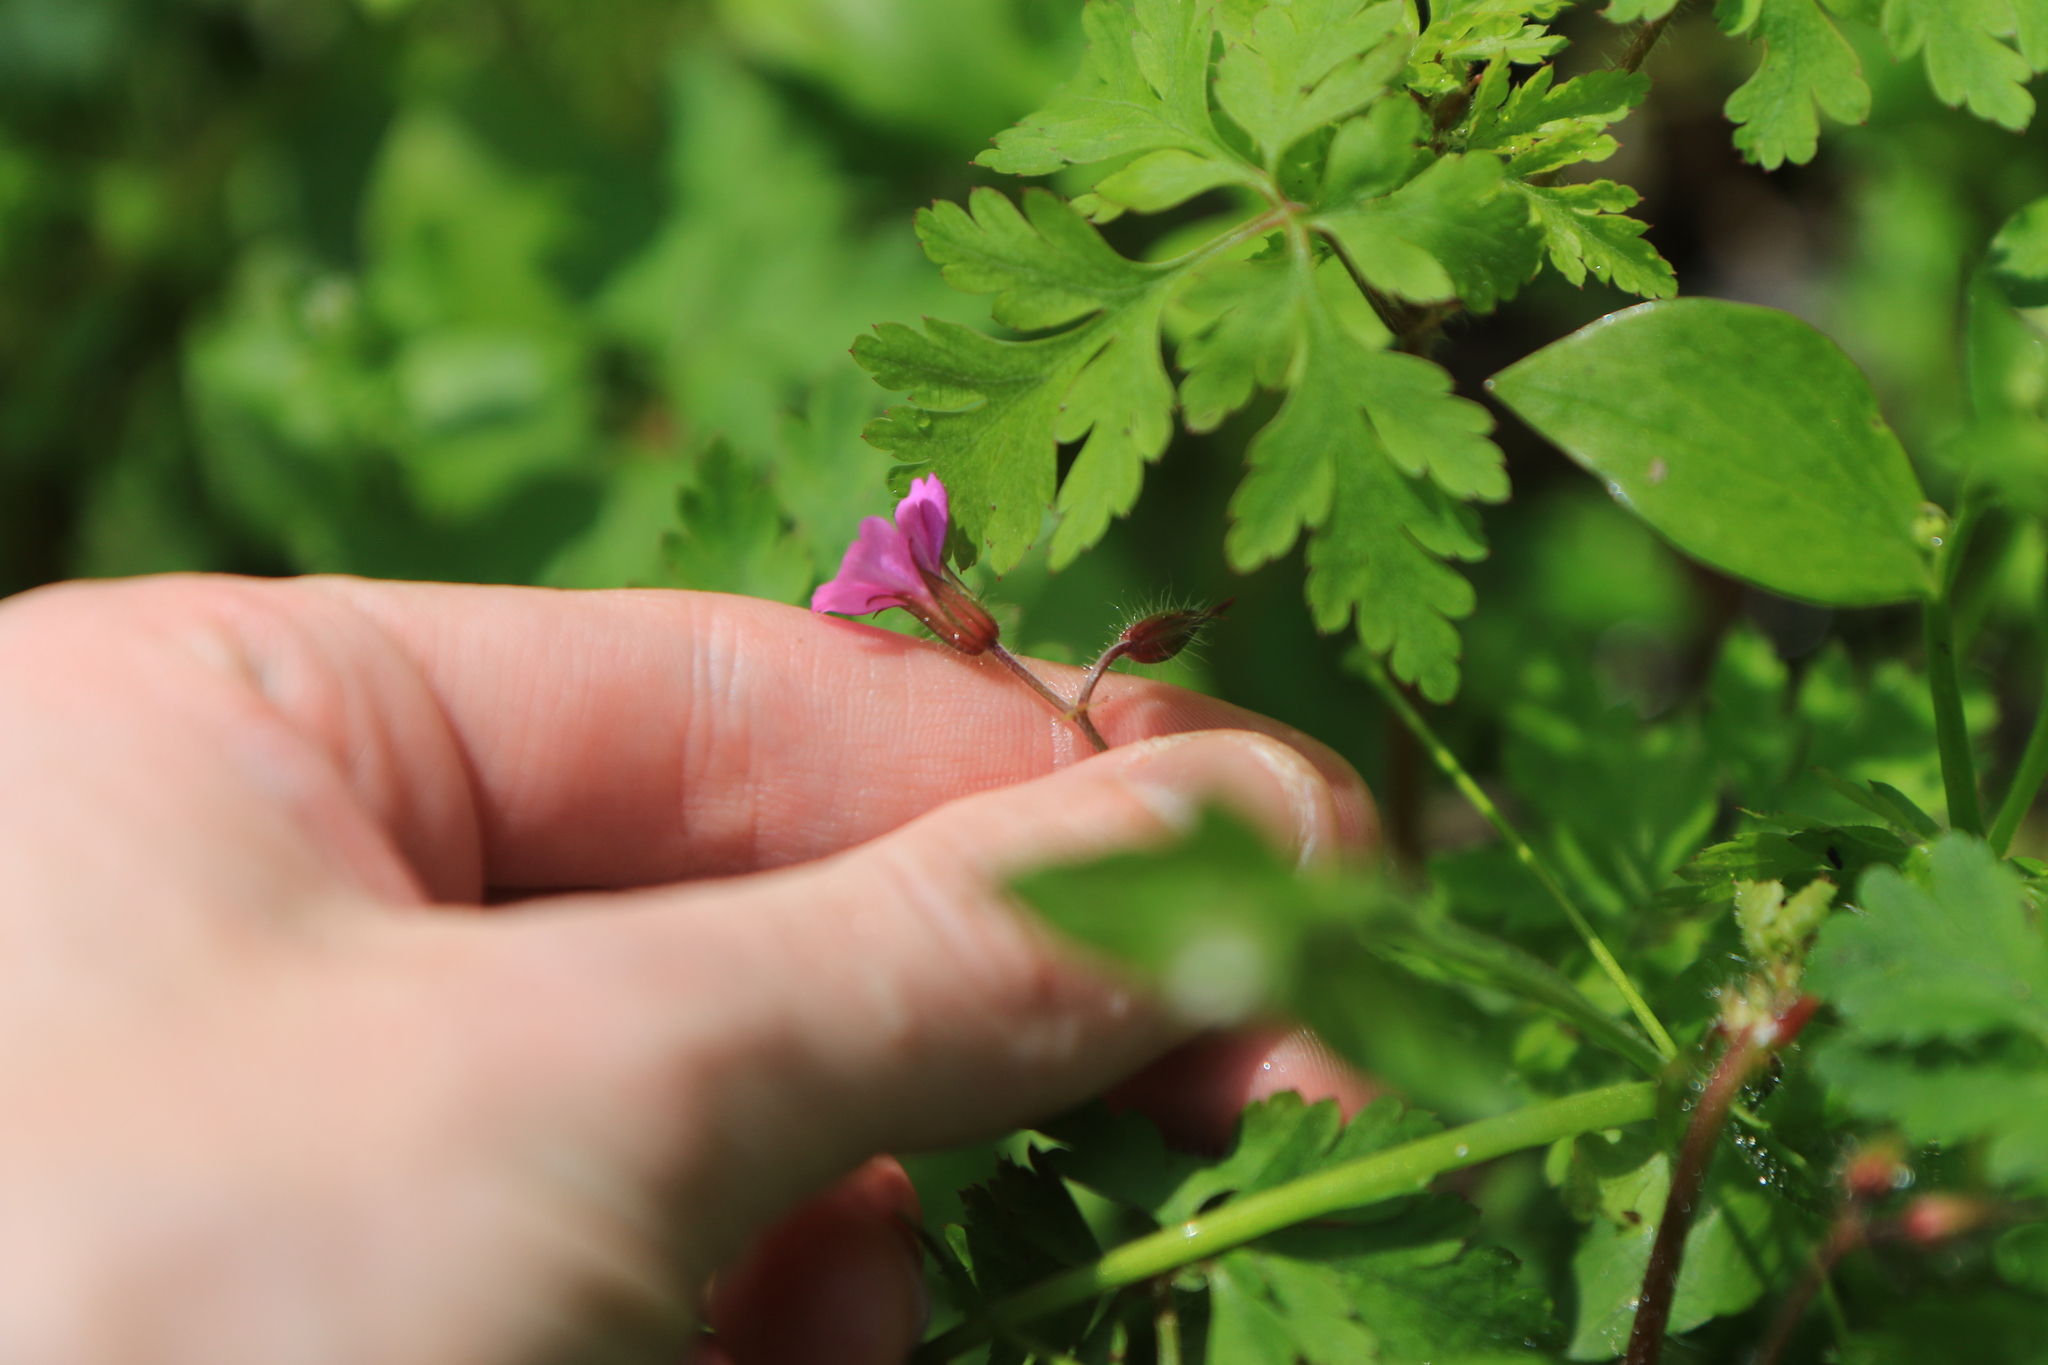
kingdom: Plantae
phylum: Tracheophyta
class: Magnoliopsida
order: Geraniales
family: Geraniaceae
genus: Geranium
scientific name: Geranium robertianum
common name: Herb-robert
